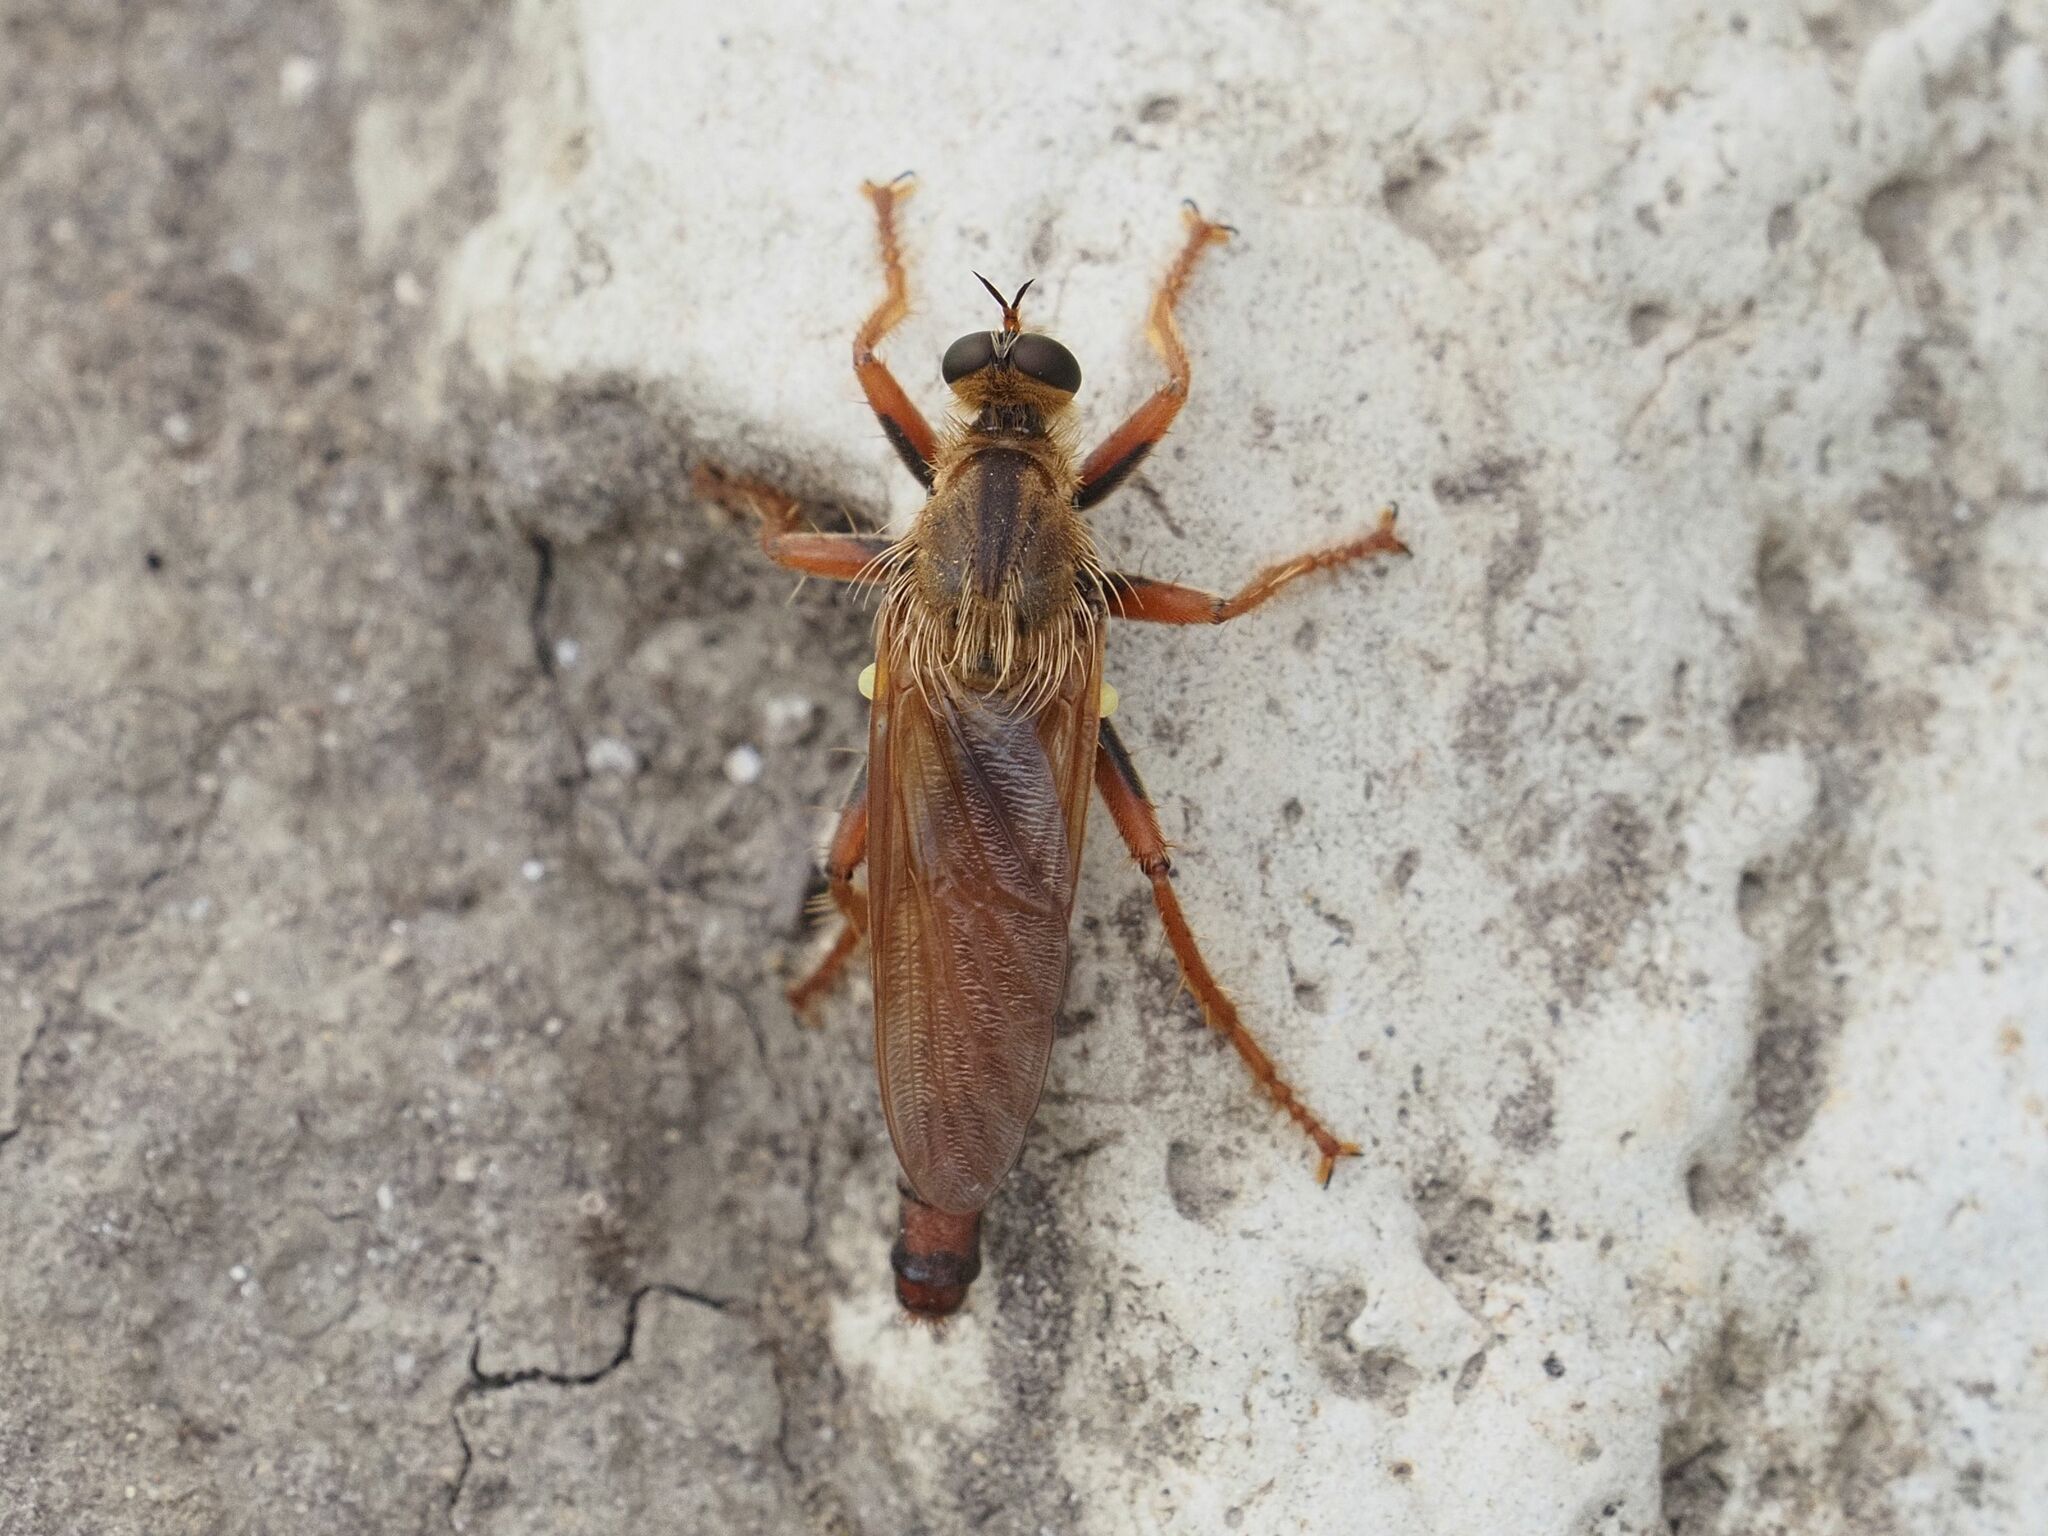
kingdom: Animalia
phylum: Arthropoda
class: Insecta
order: Diptera
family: Asilidae
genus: Stenopogon
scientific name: Stenopogon sabaudus
